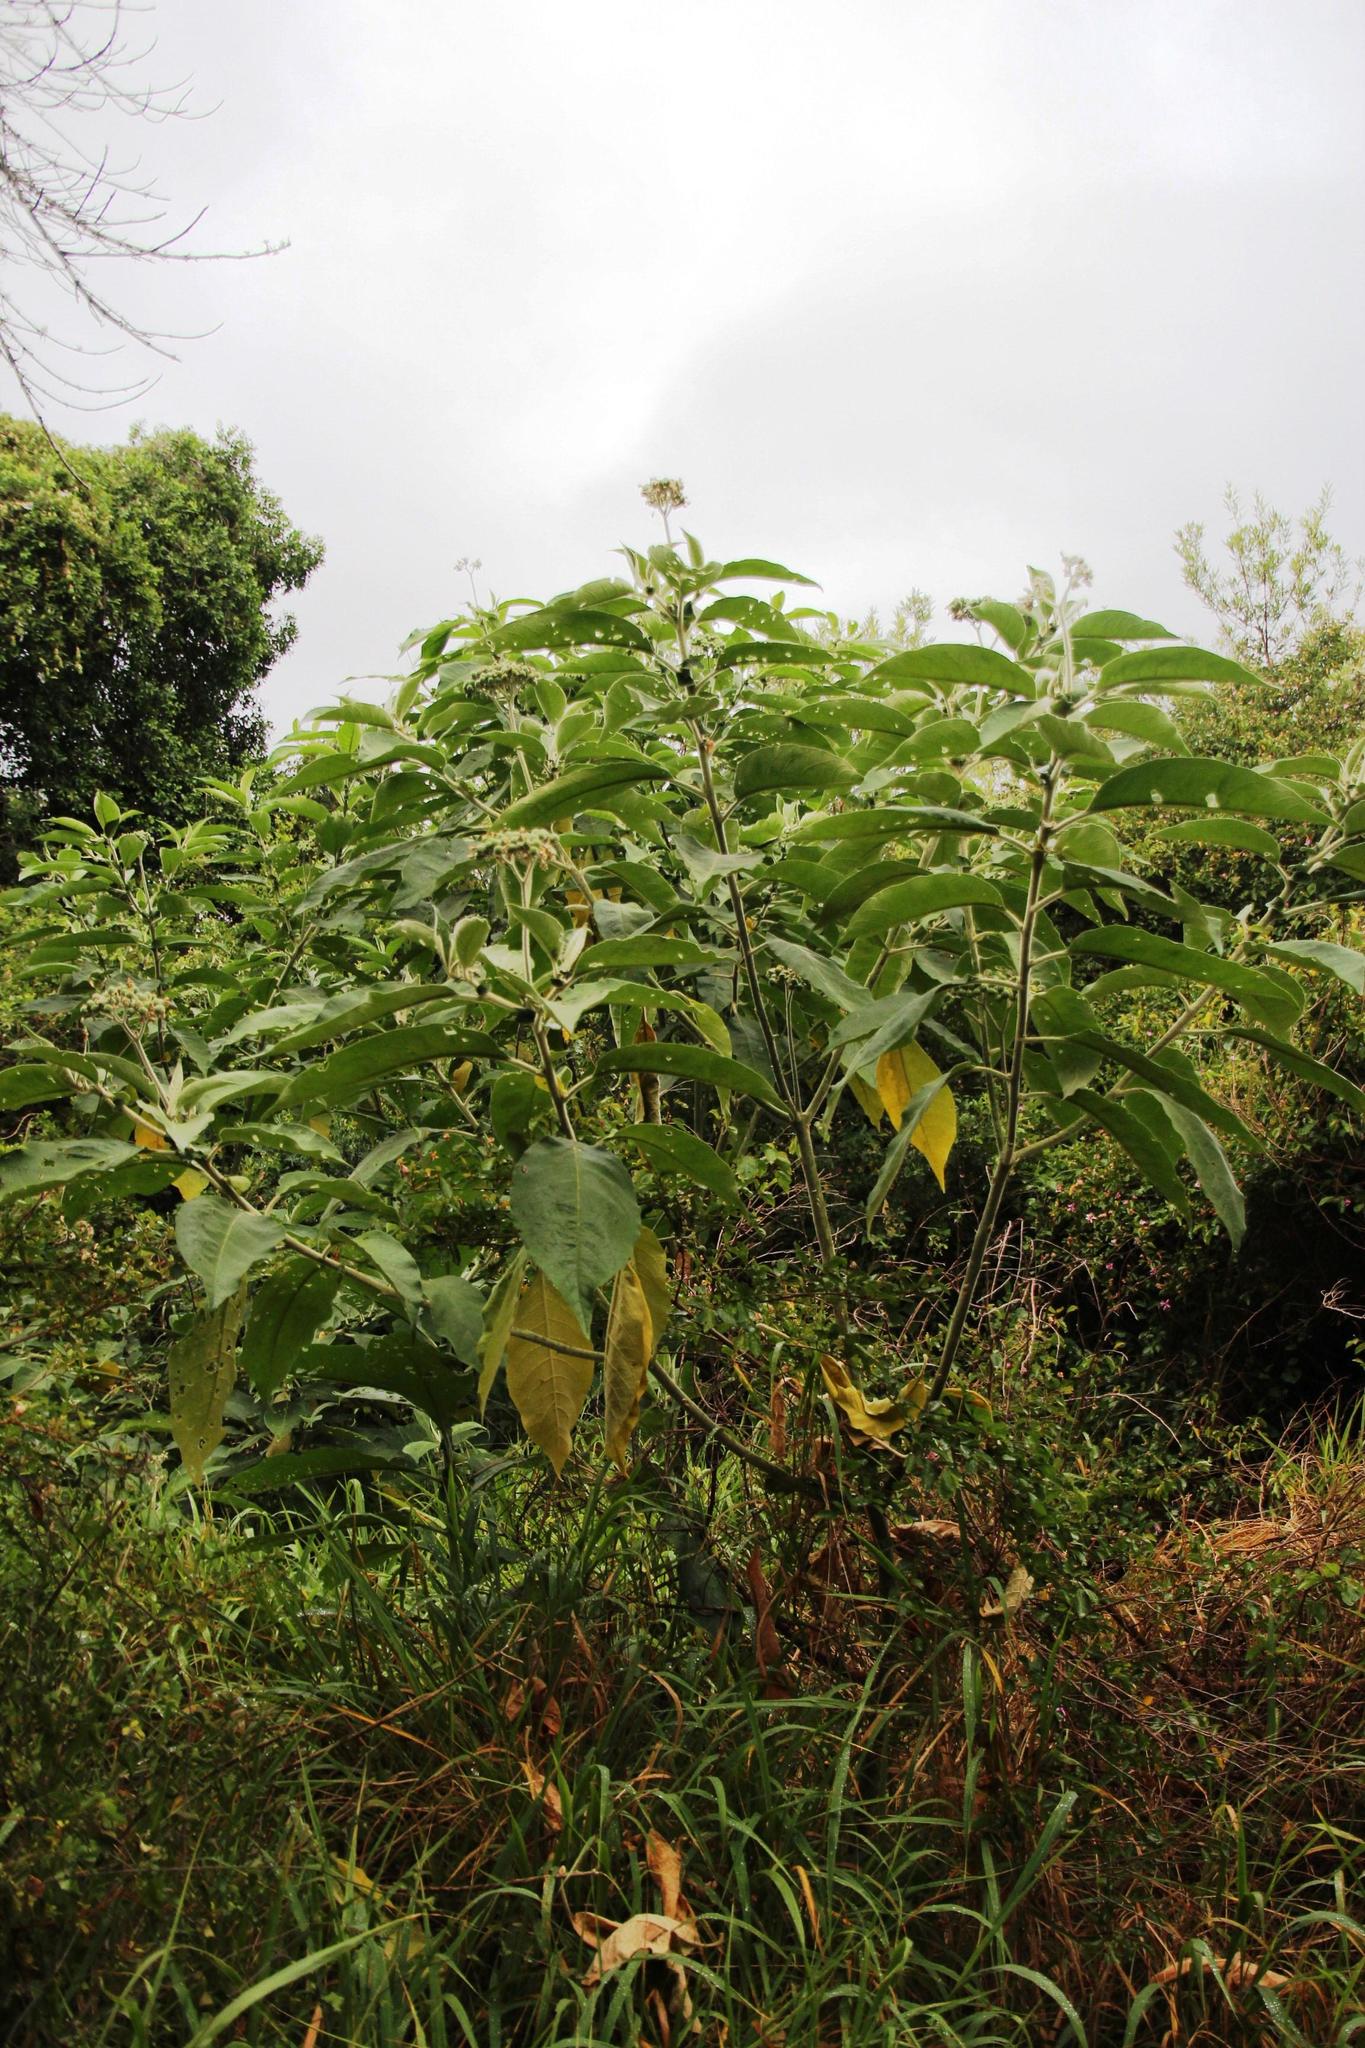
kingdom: Plantae
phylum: Tracheophyta
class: Magnoliopsida
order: Solanales
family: Solanaceae
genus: Solanum
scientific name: Solanum mauritianum
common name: Earleaf nightshade
